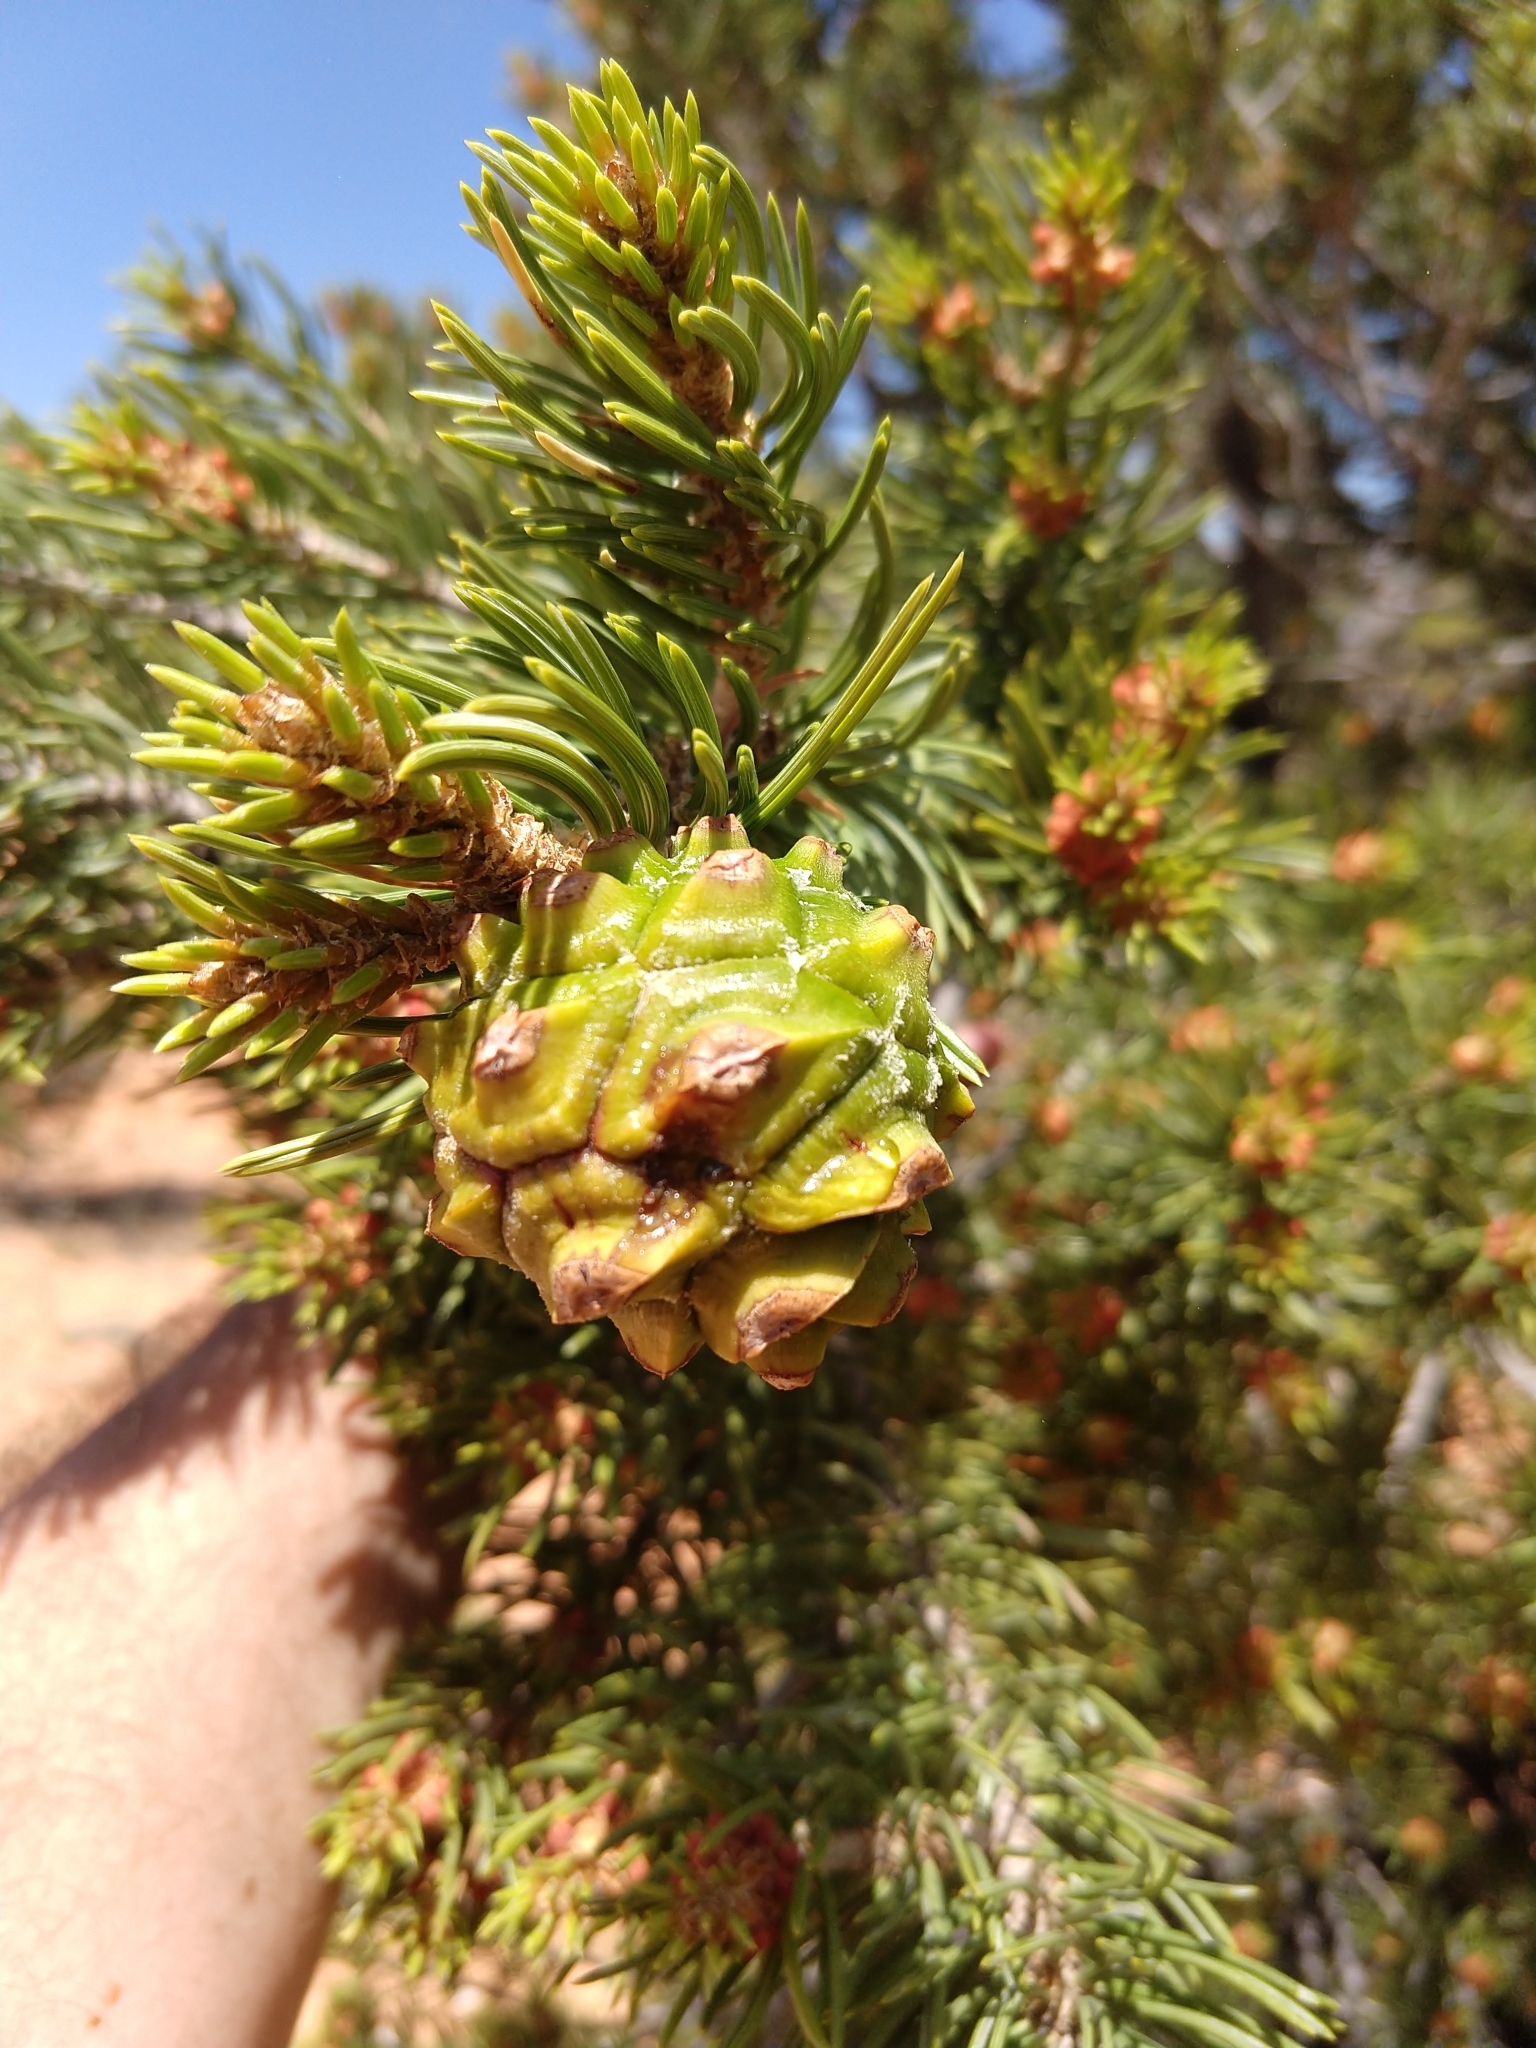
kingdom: Plantae
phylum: Tracheophyta
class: Pinopsida
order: Pinales
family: Pinaceae
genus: Pinus
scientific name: Pinus edulis
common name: Colorado pinyon
